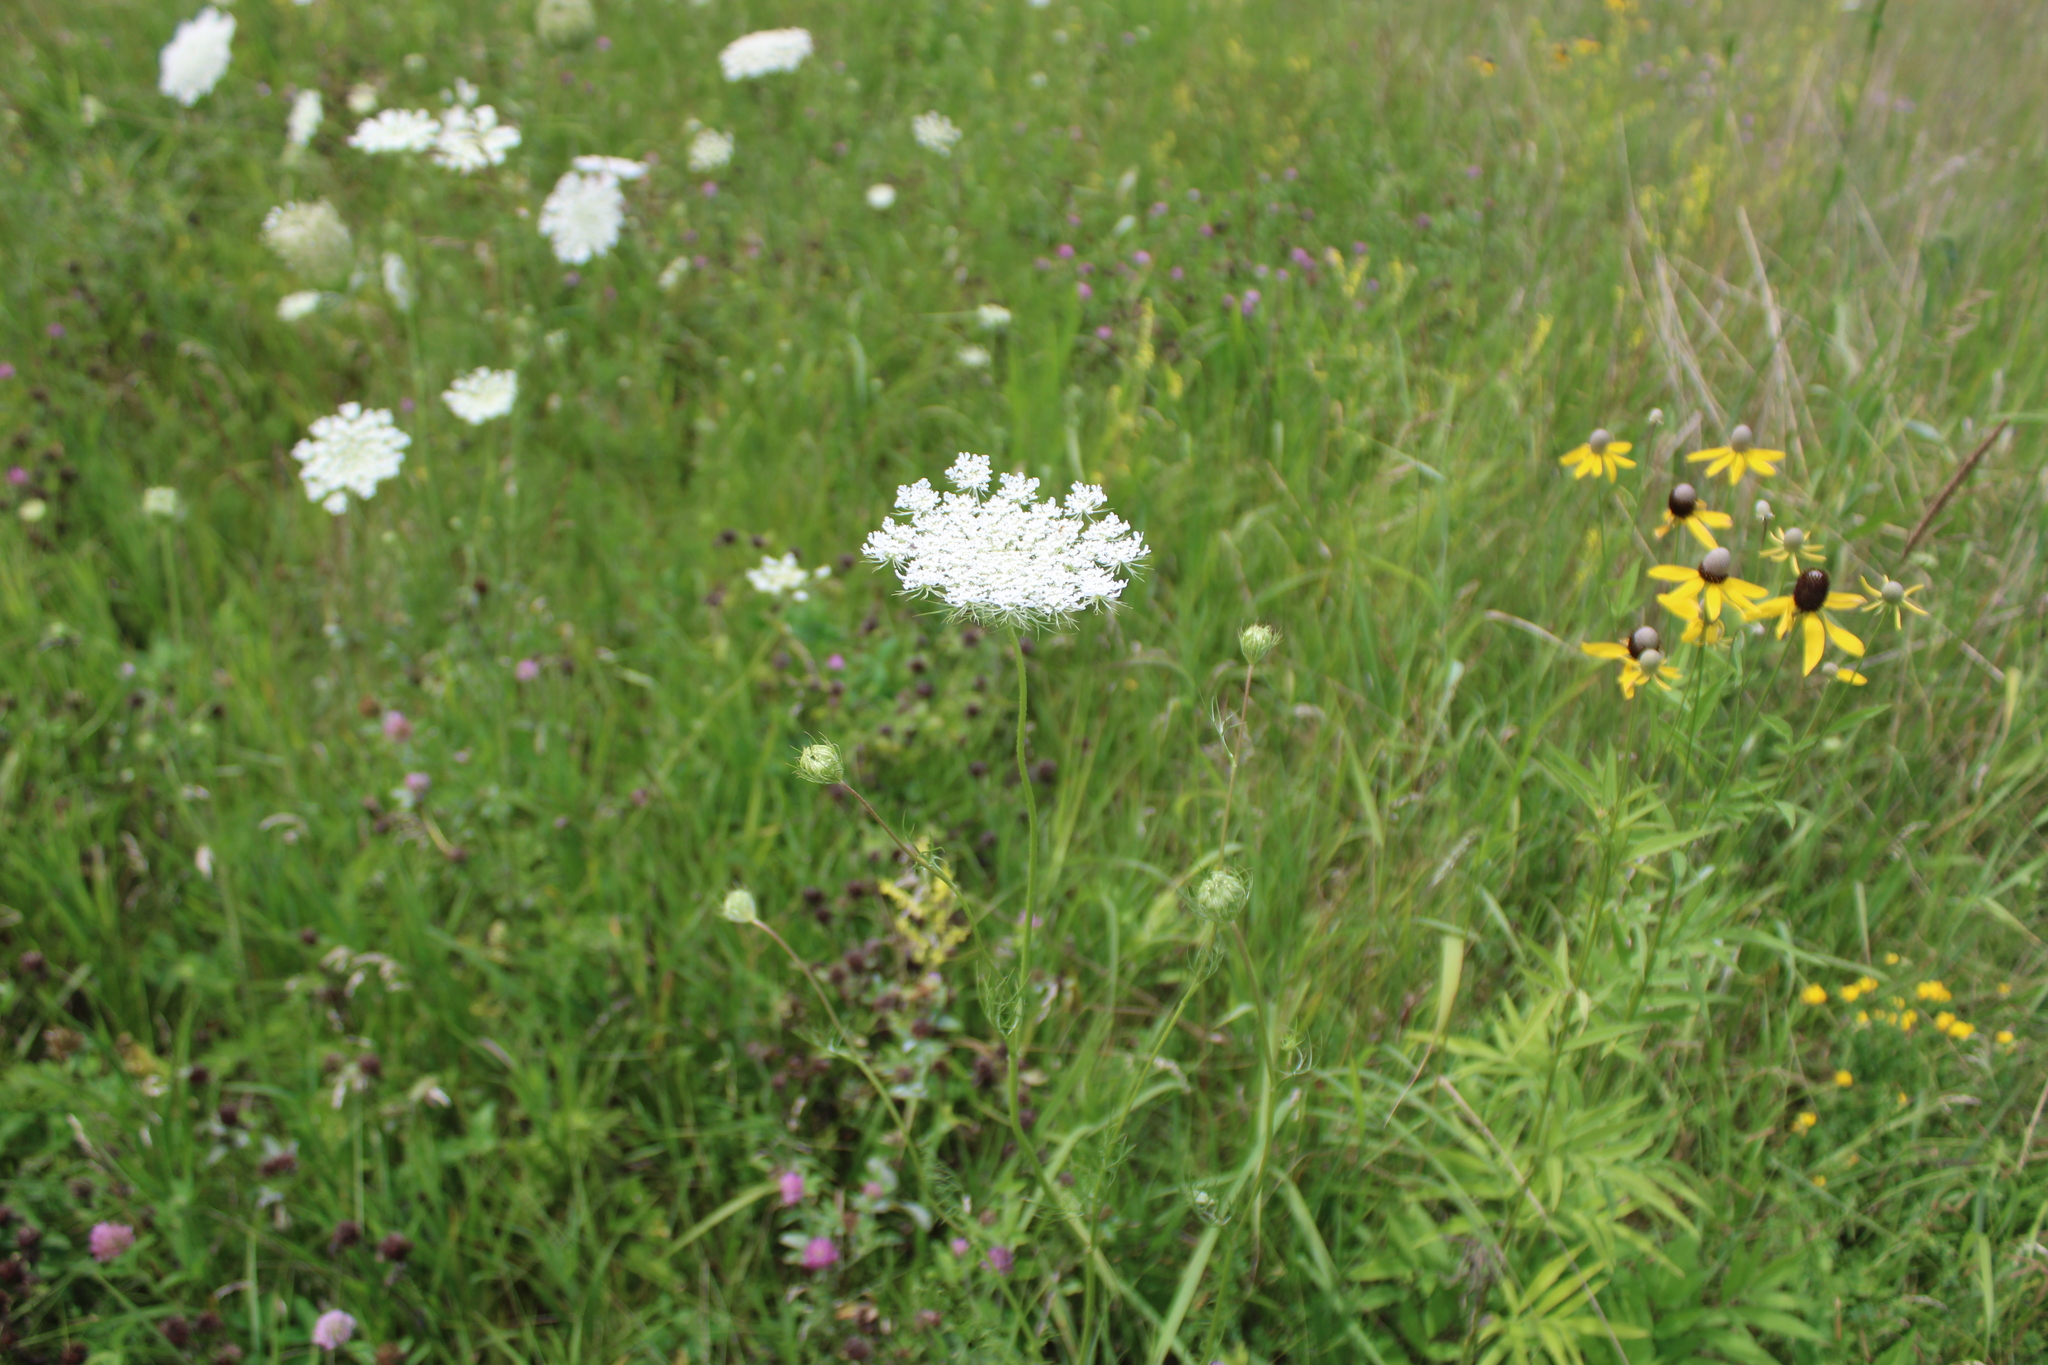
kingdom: Plantae
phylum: Tracheophyta
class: Magnoliopsida
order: Apiales
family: Apiaceae
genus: Daucus
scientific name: Daucus carota
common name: Wild carrot
